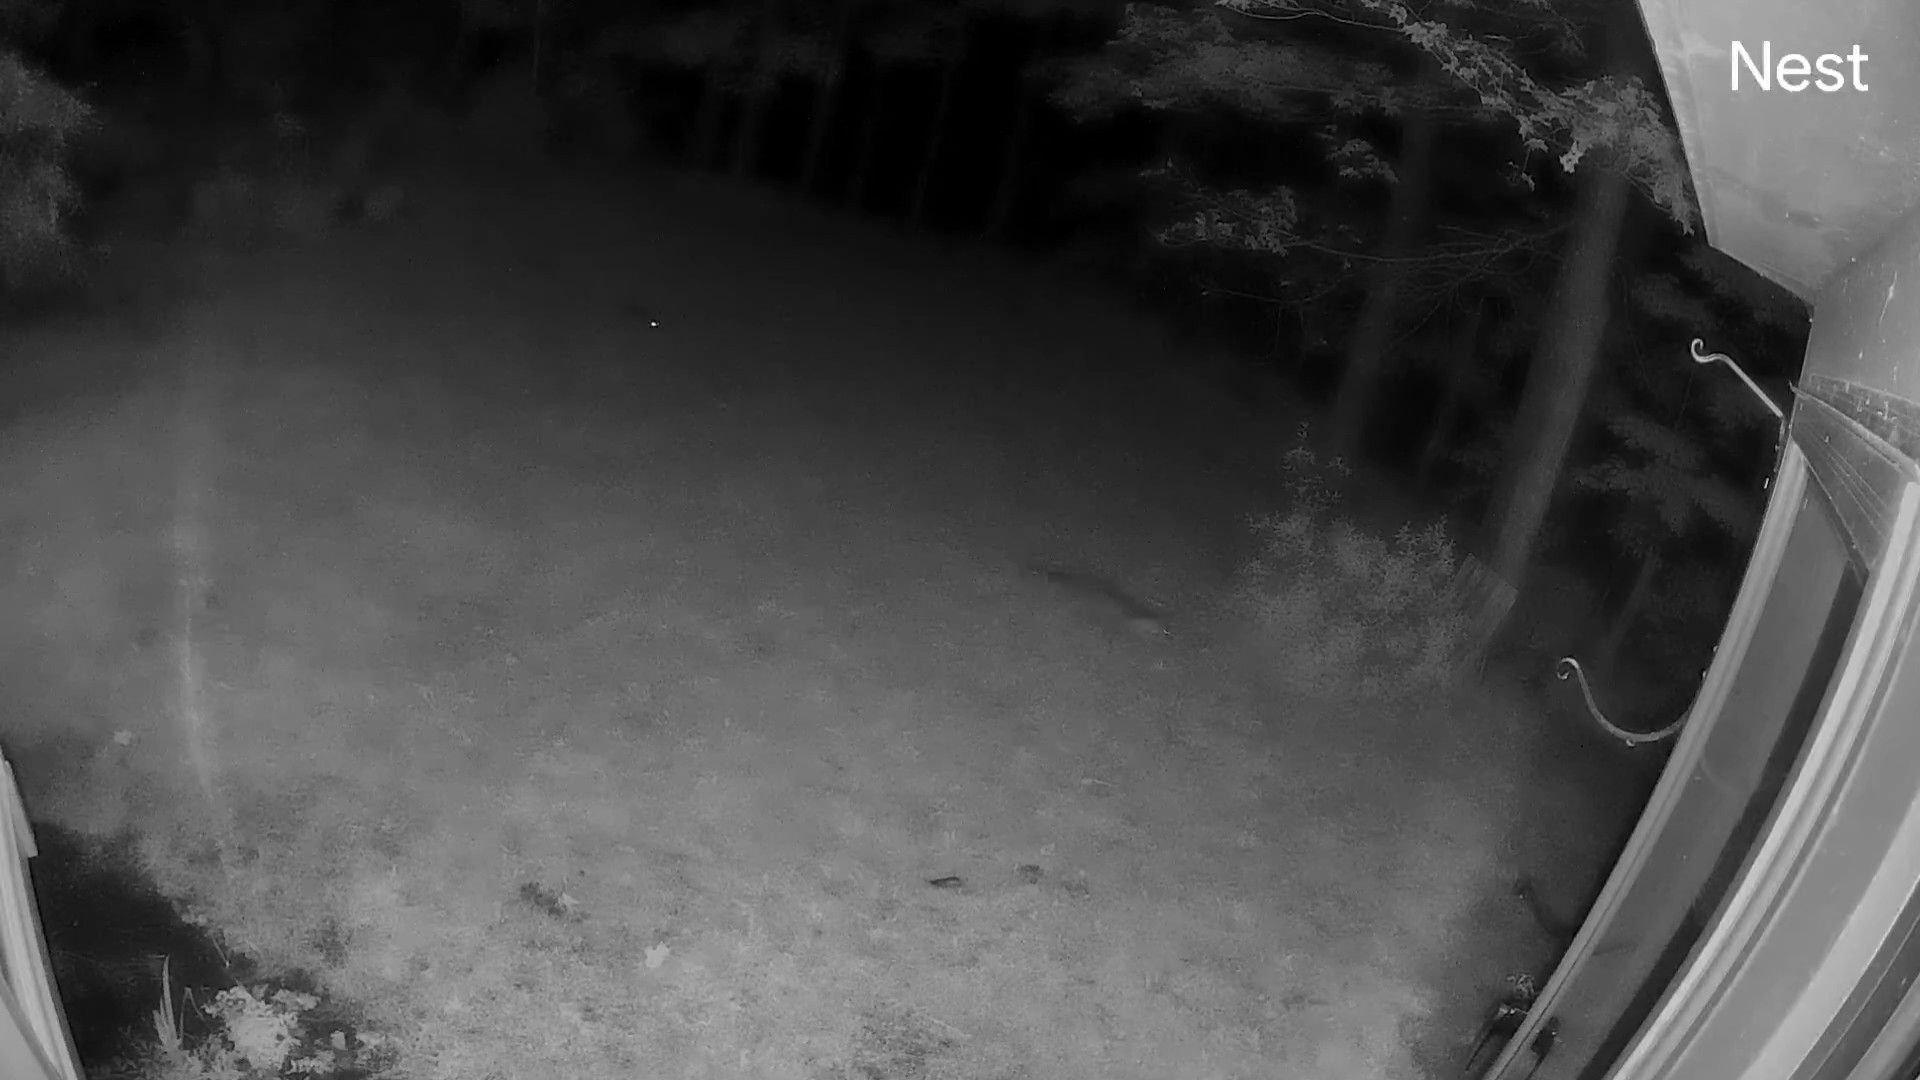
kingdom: Animalia
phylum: Chordata
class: Mammalia
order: Carnivora
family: Canidae
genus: Vulpes
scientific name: Vulpes vulpes
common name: Red fox
